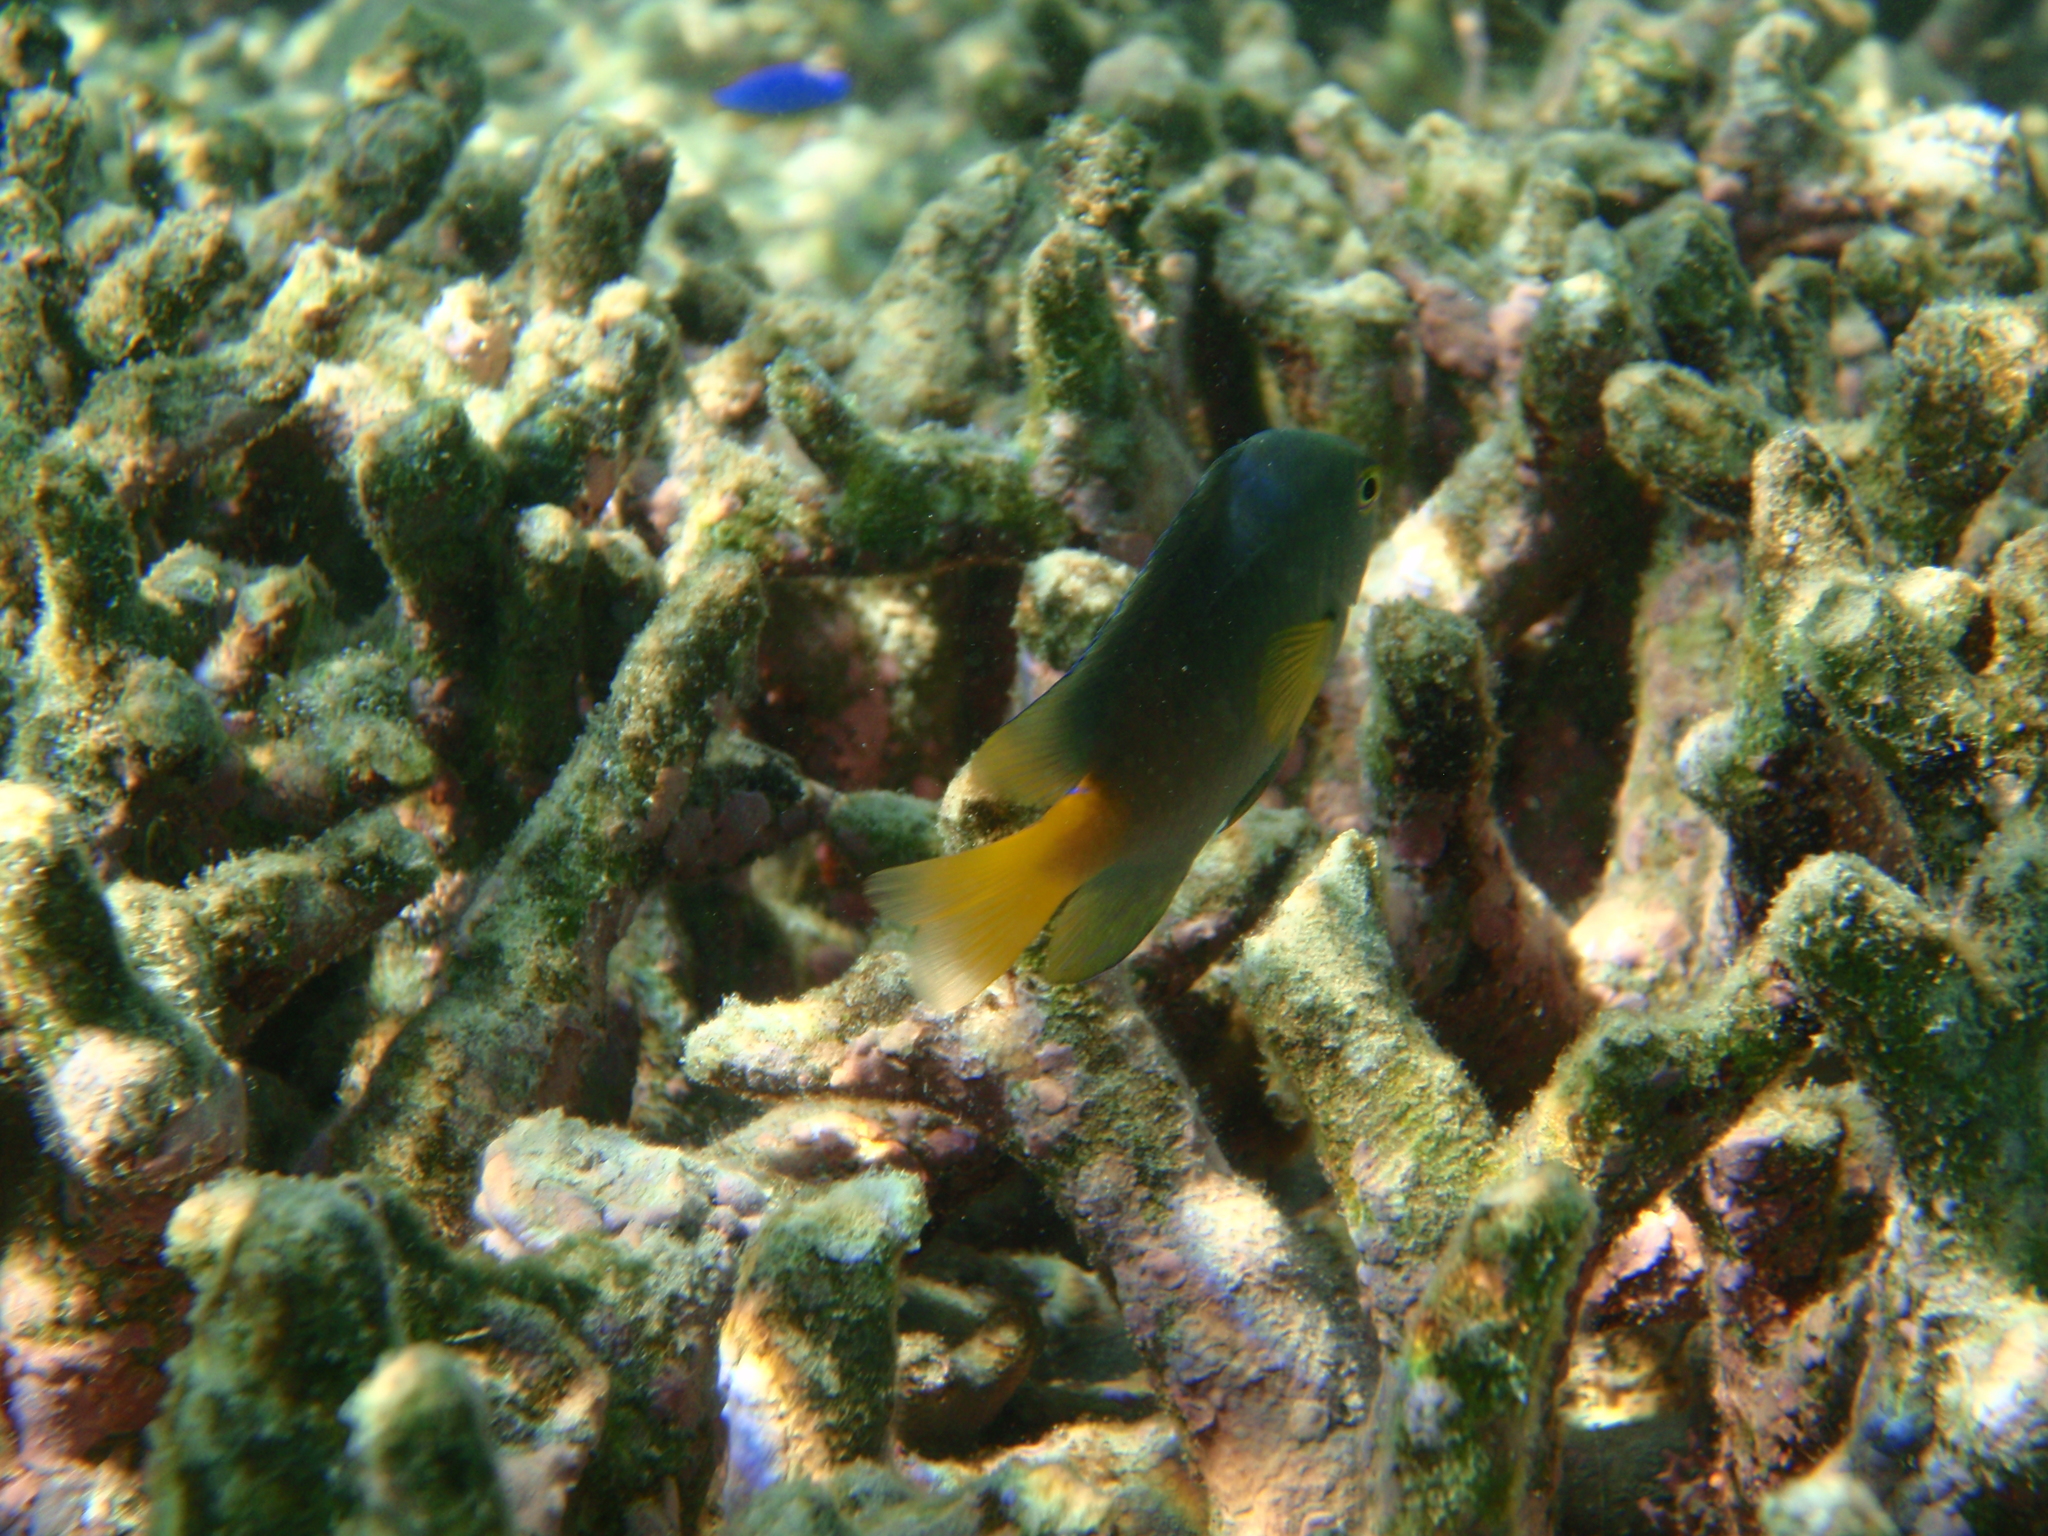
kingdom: Animalia
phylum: Chordata
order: Perciformes
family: Pomacentridae
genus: Pomacentrus
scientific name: Pomacentrus maafu
